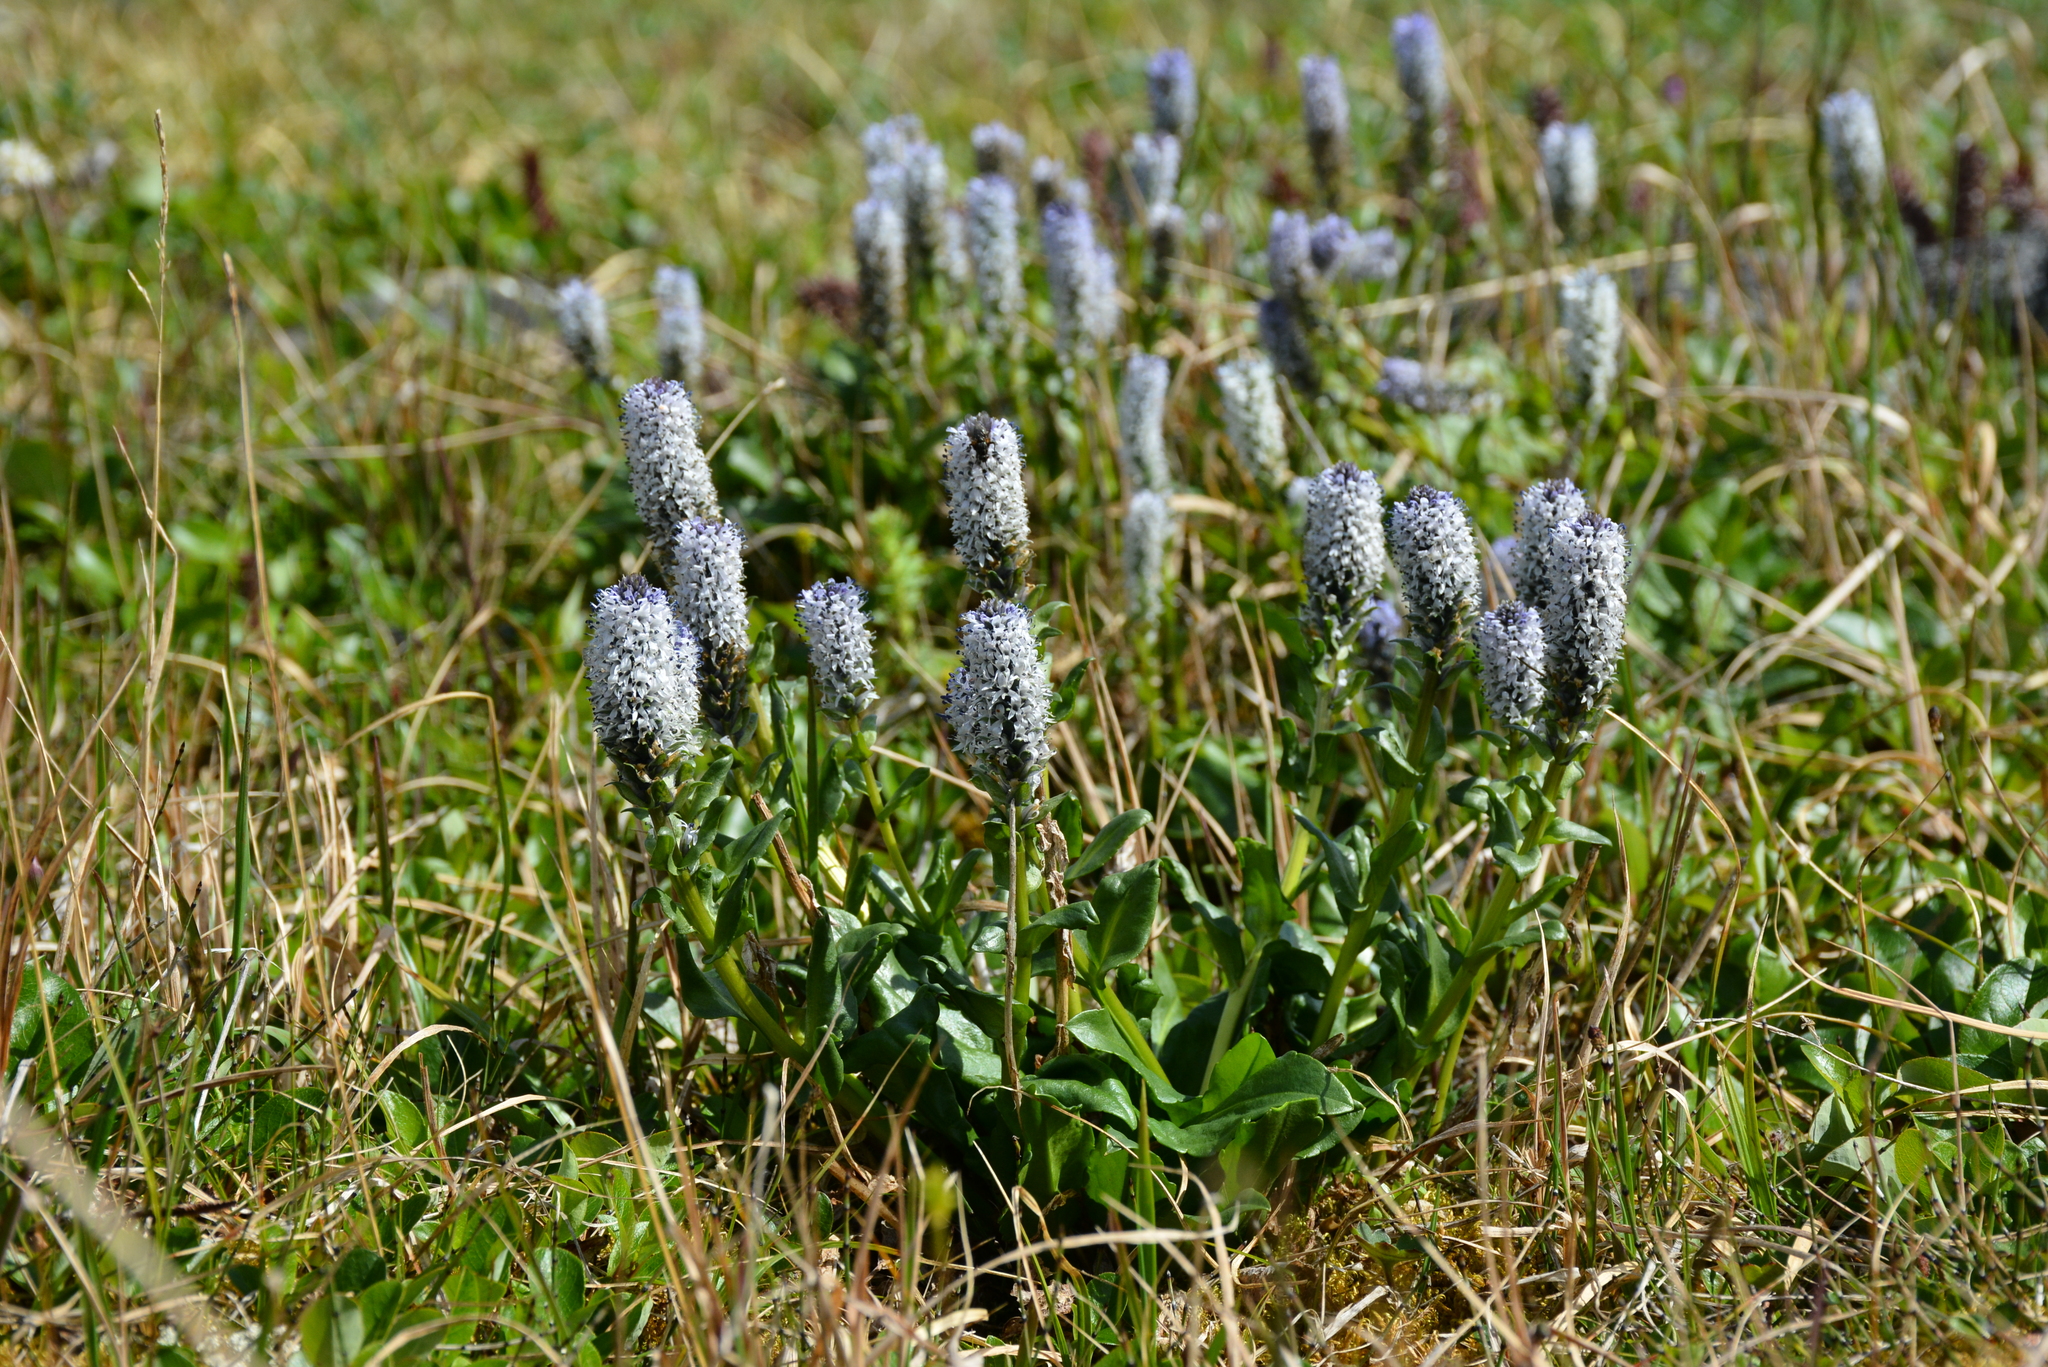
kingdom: Plantae
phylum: Tracheophyta
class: Magnoliopsida
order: Lamiales
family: Plantaginaceae
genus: Lagotis
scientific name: Lagotis glauca
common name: Glaucous weaselsnout
